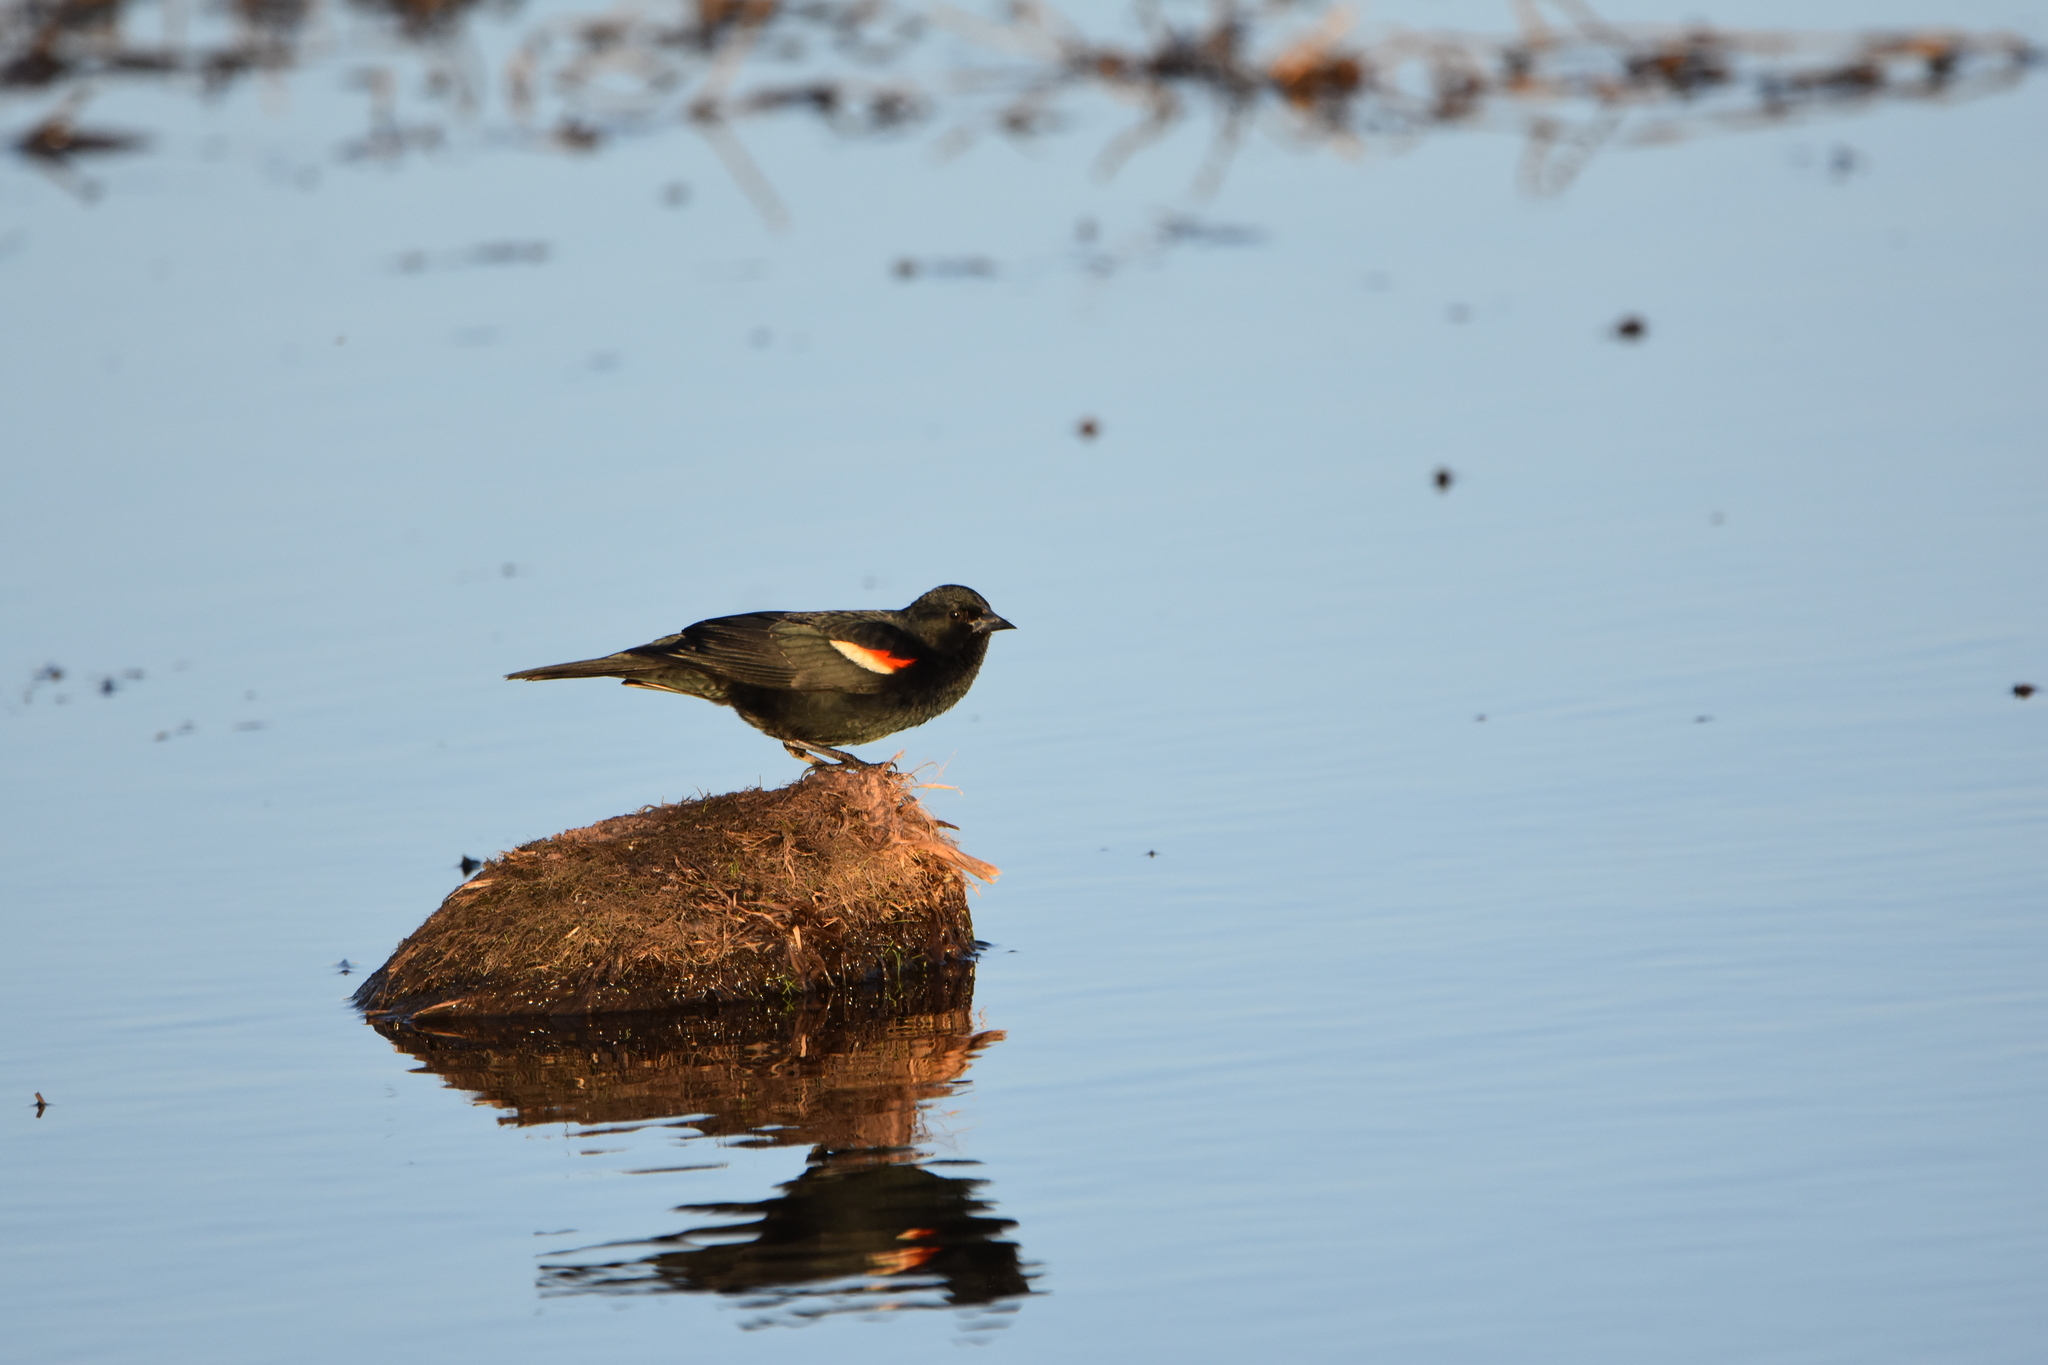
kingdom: Animalia
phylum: Chordata
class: Aves
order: Passeriformes
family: Icteridae
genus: Agelaius
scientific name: Agelaius phoeniceus
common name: Red-winged blackbird
